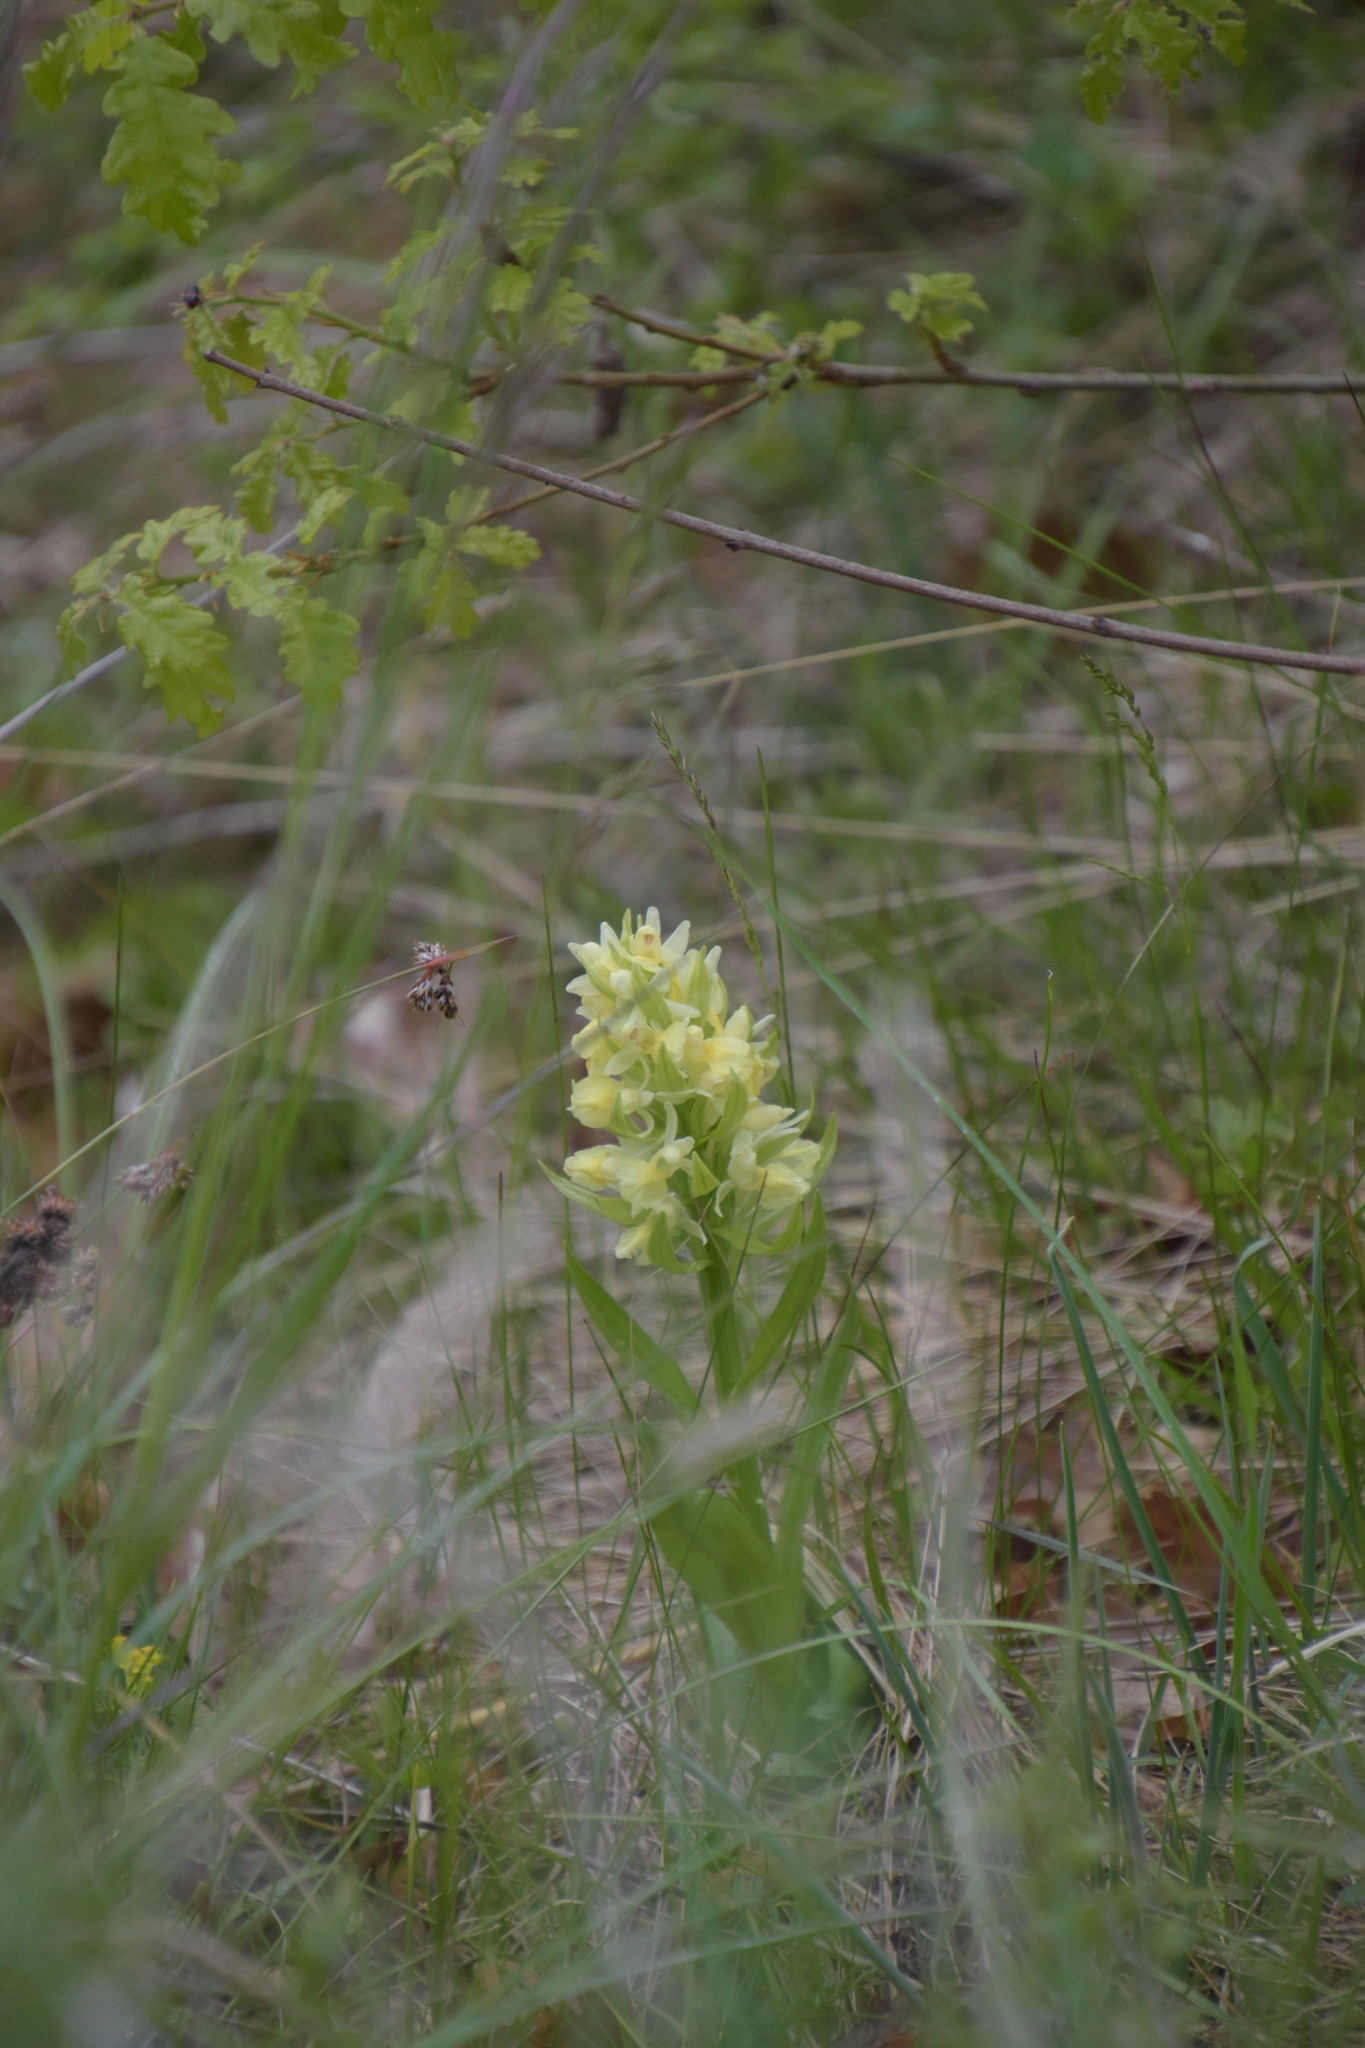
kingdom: Plantae
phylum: Tracheophyta
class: Liliopsida
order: Asparagales
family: Orchidaceae
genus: Dactylorhiza
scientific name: Dactylorhiza sambucina
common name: Elder-flowered orchid
